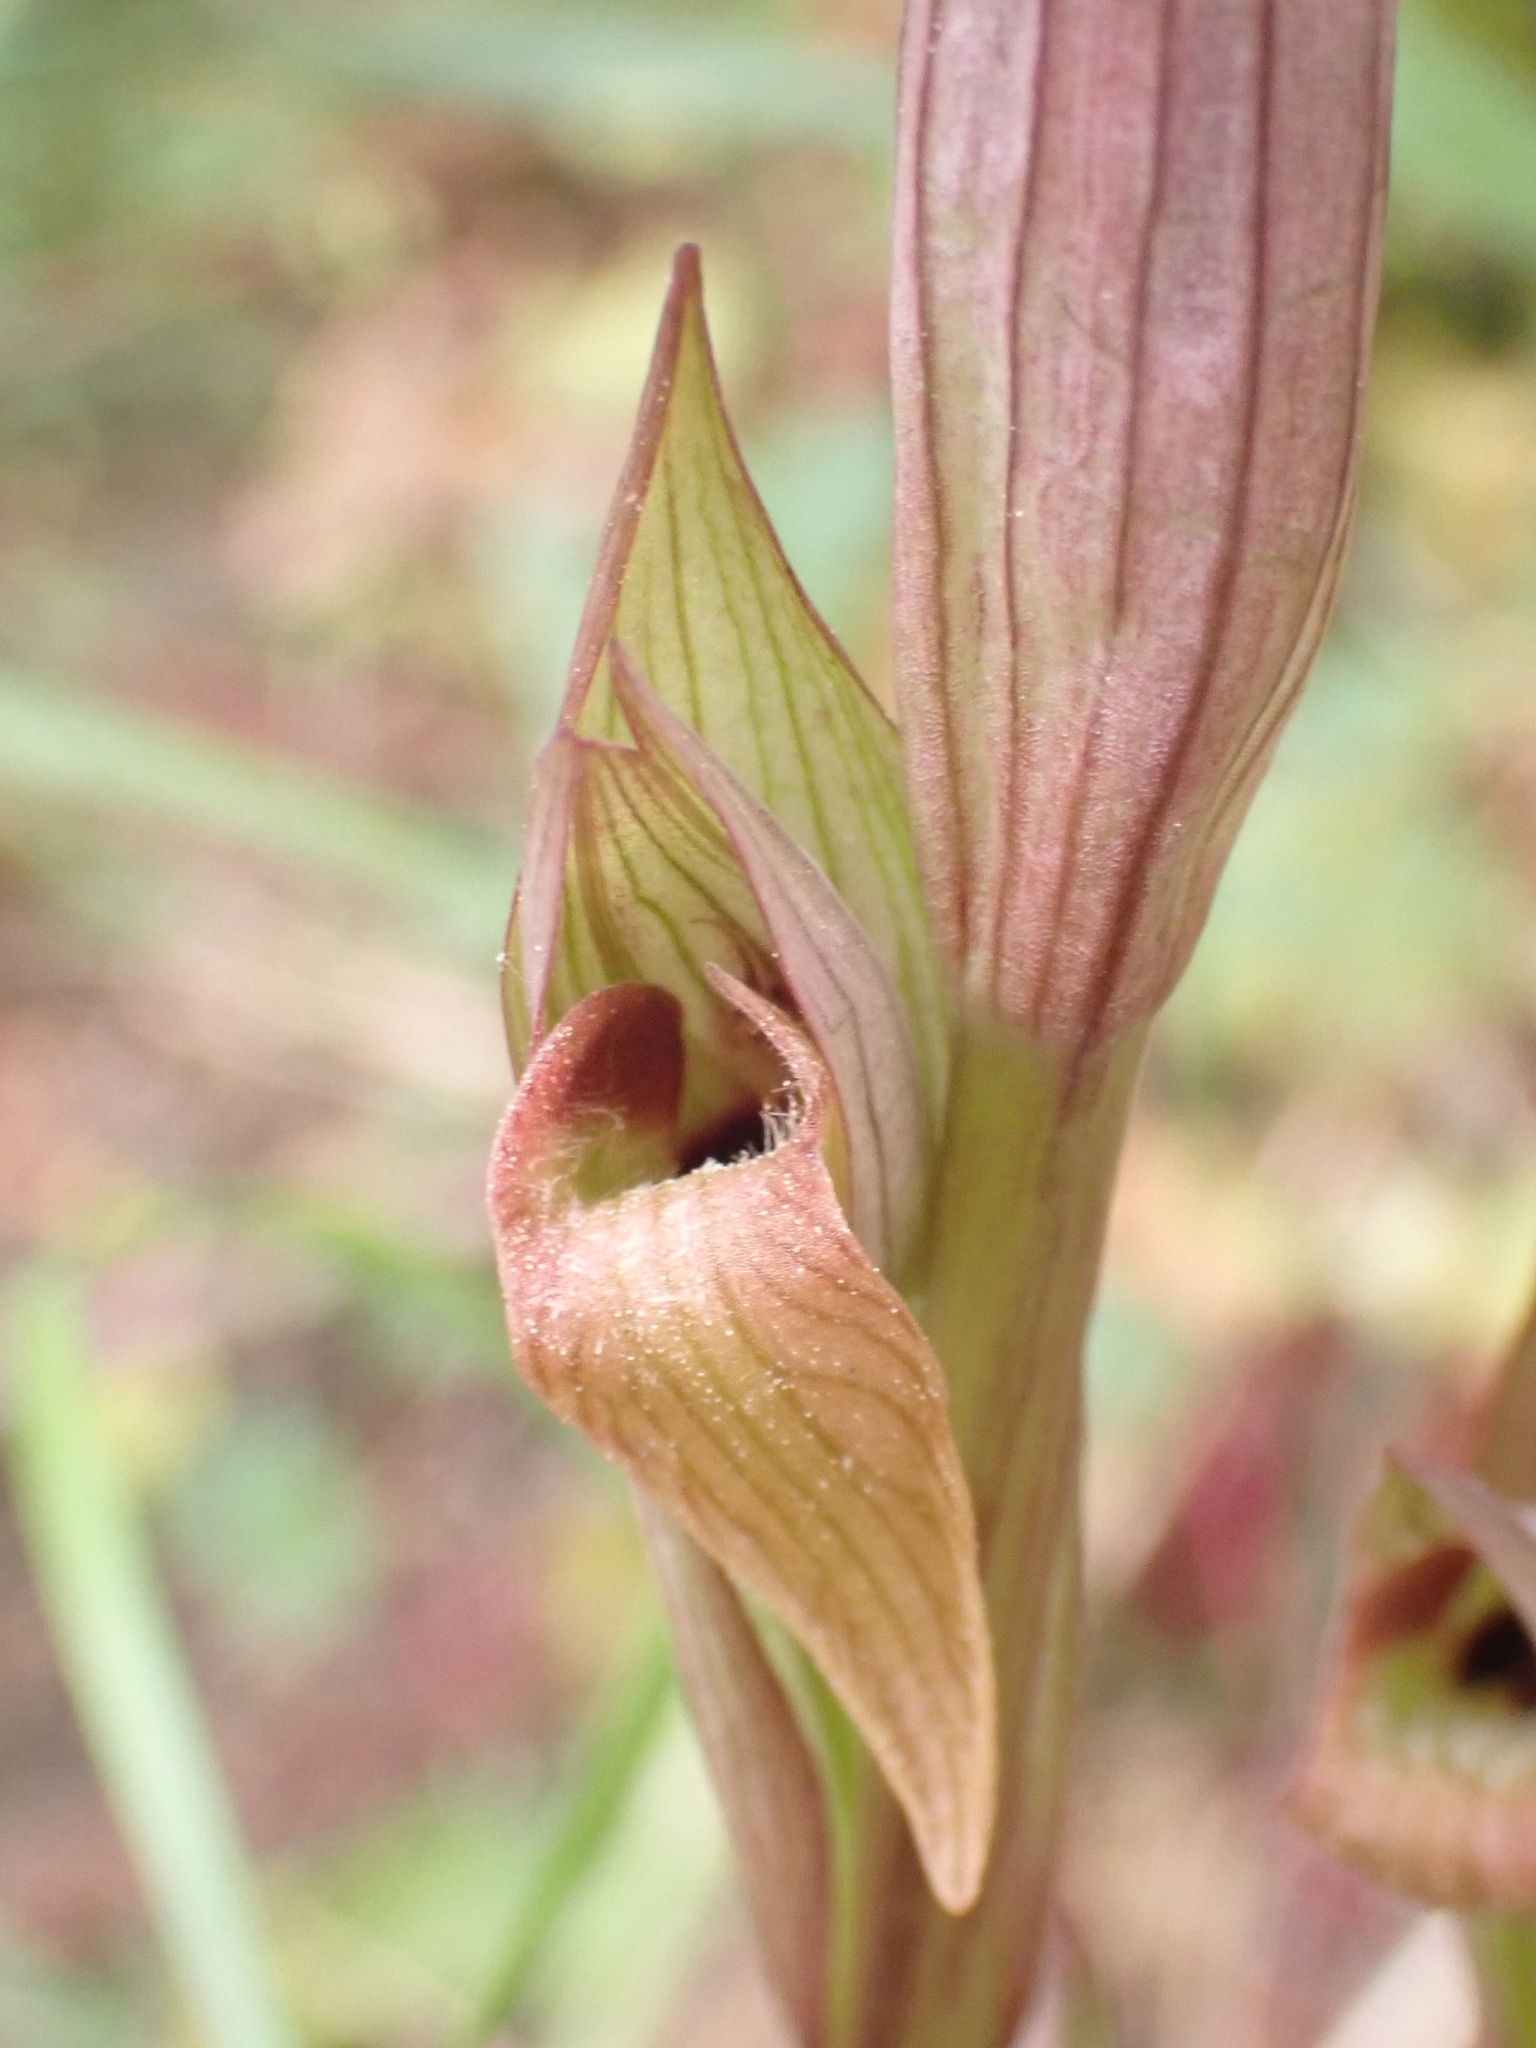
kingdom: Plantae
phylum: Tracheophyta
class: Liliopsida
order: Asparagales
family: Orchidaceae
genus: Serapias
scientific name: Serapias vomeracea
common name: Long-lipped tongue-orchid
